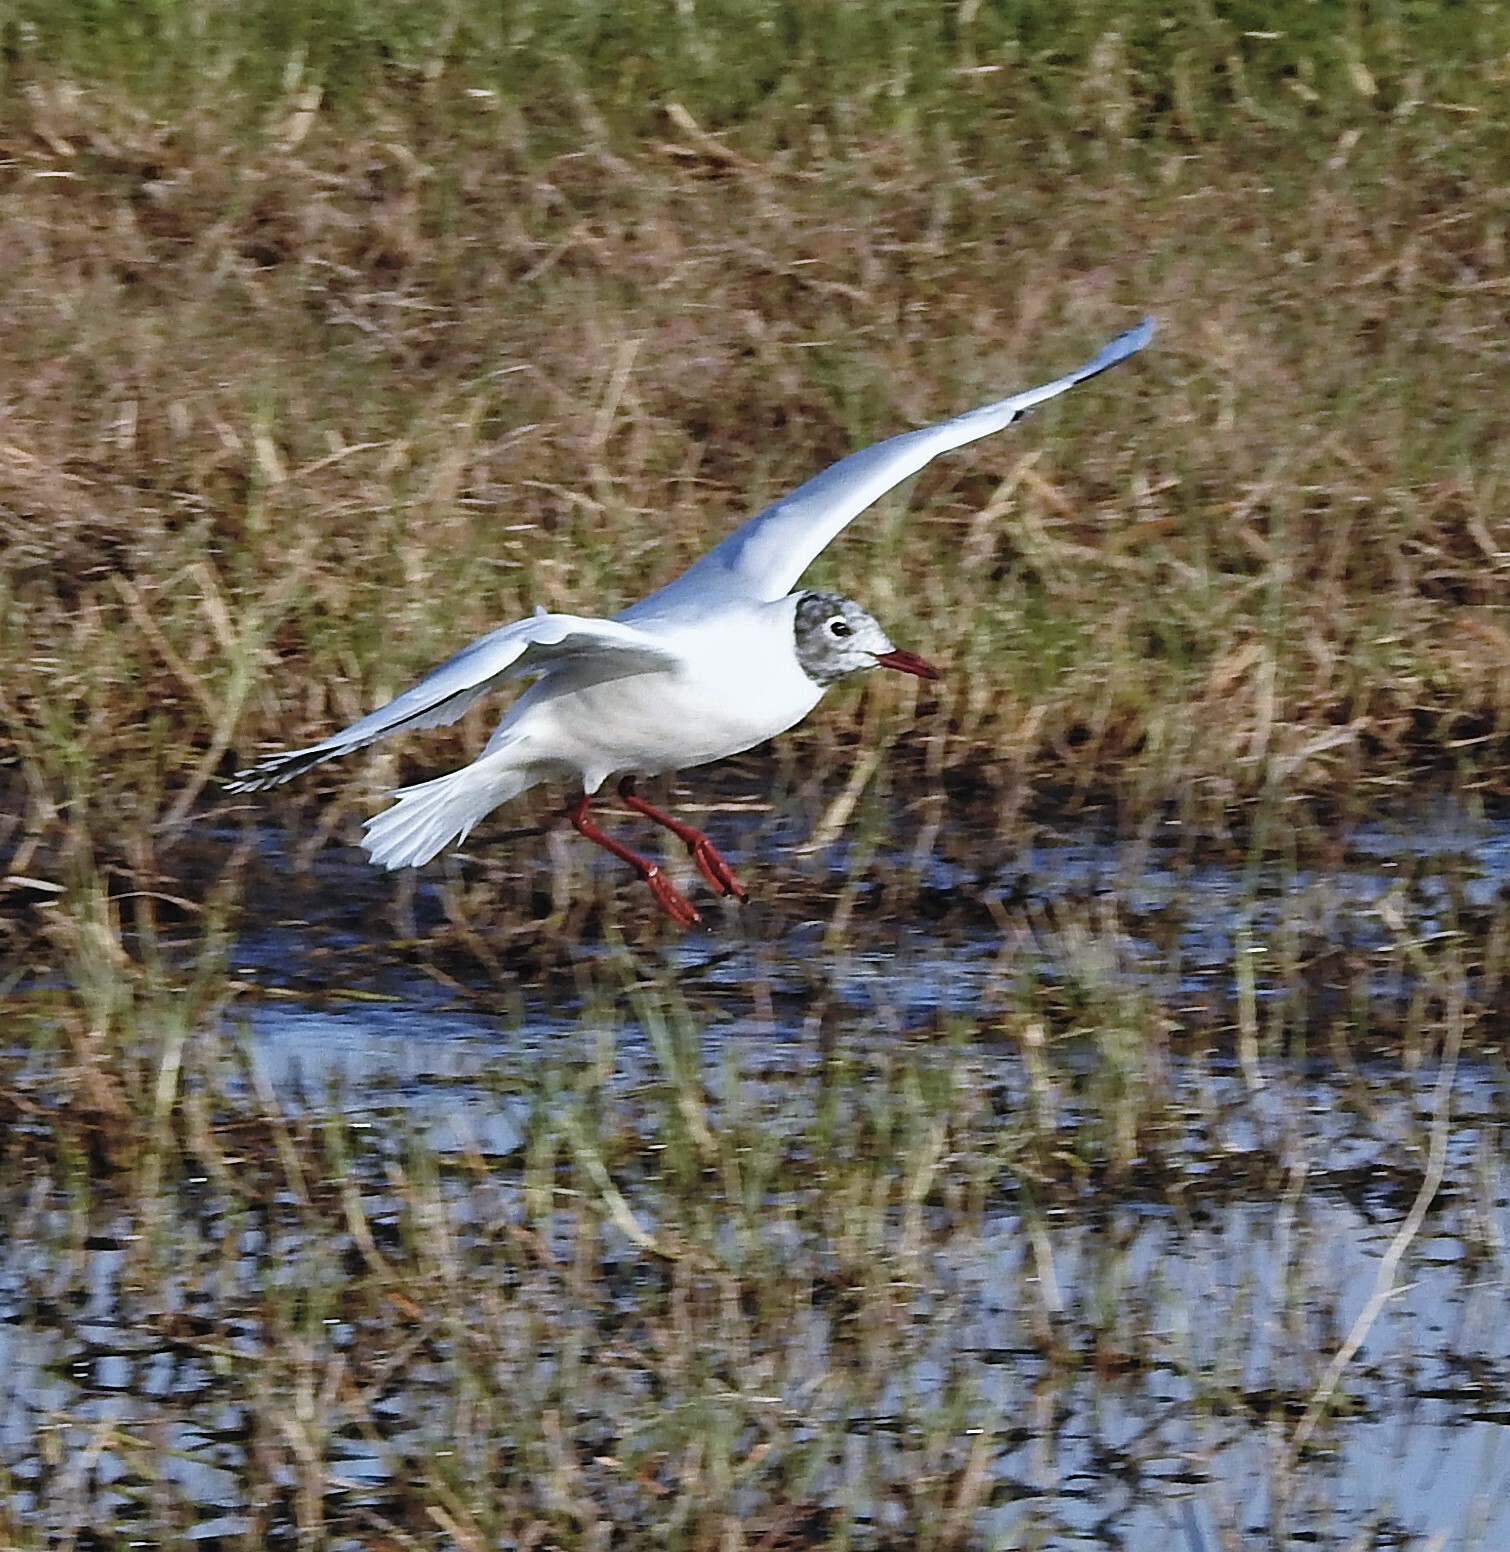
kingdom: Animalia
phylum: Chordata
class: Aves
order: Charadriiformes
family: Laridae
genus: Chroicocephalus
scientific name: Chroicocephalus maculipennis
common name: Brown-hooded gull
